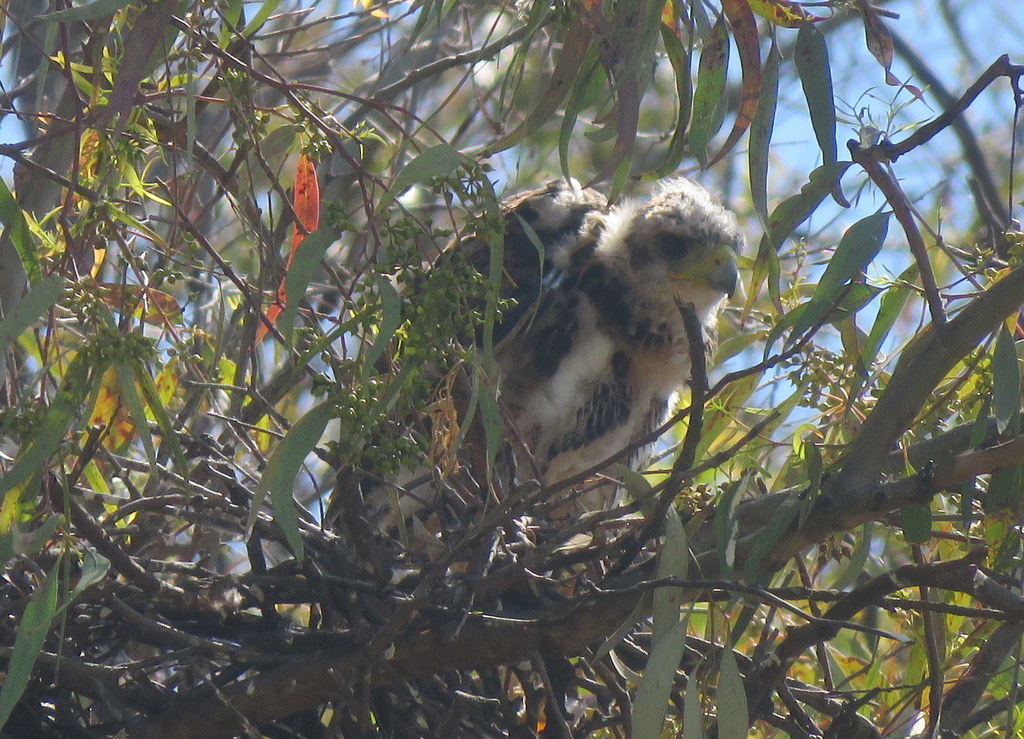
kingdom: Animalia
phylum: Chordata
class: Aves
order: Accipitriformes
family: Accipitridae
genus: Parabuteo
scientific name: Parabuteo unicinctus
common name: Harris's hawk
